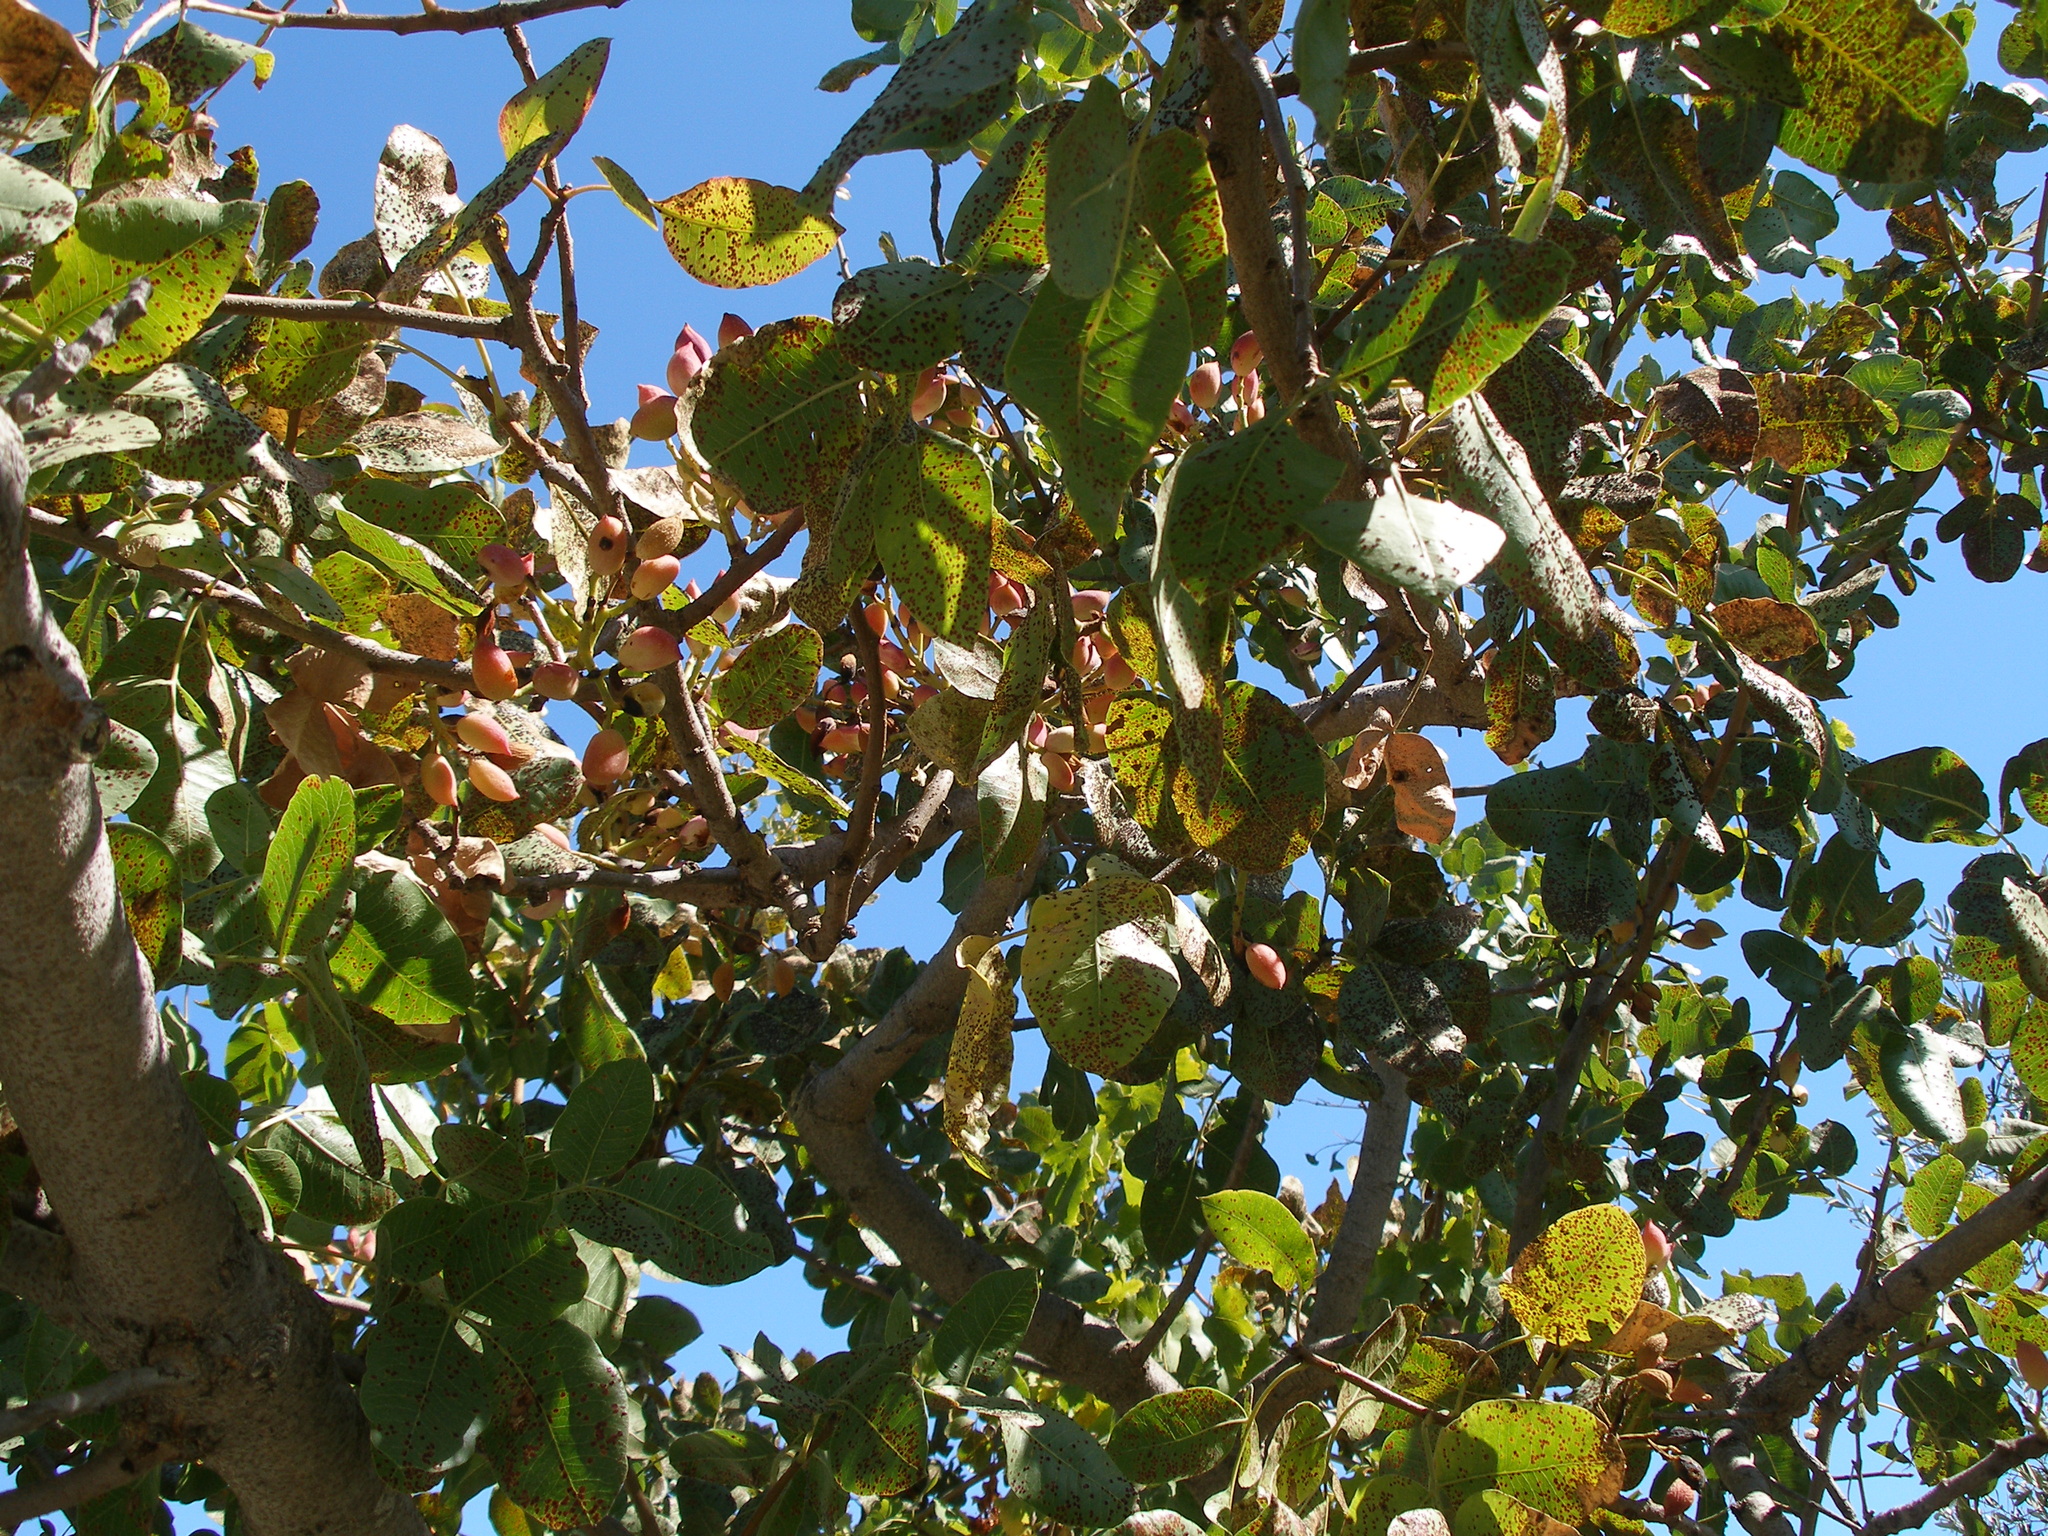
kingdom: Plantae
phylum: Tracheophyta
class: Magnoliopsida
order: Sapindales
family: Anacardiaceae
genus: Pistacia
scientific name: Pistacia vera
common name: Pistachio
